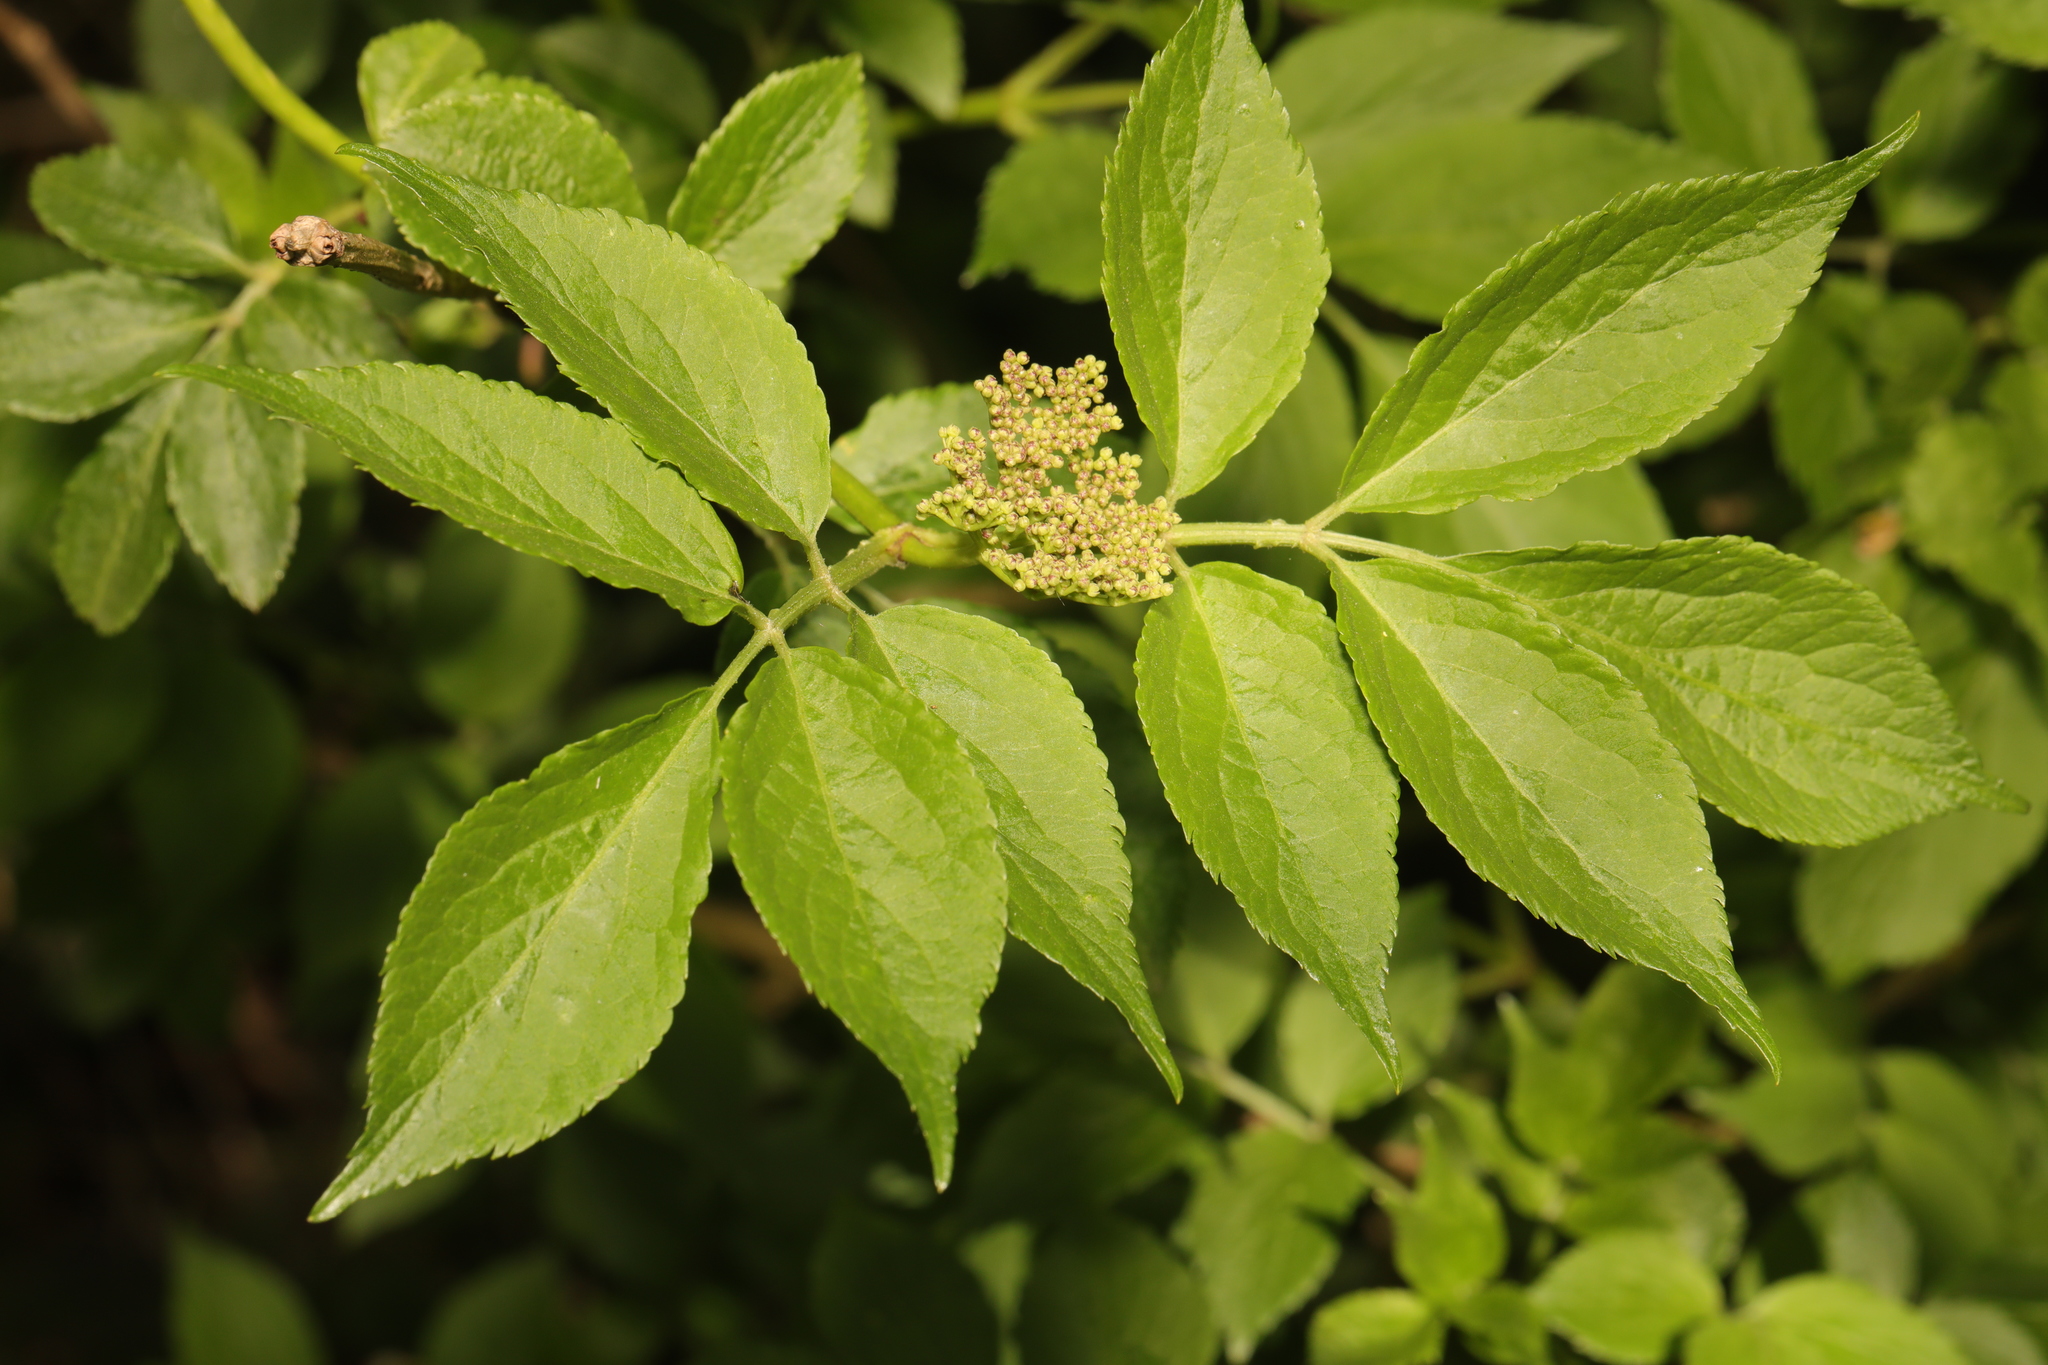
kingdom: Plantae
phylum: Tracheophyta
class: Magnoliopsida
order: Dipsacales
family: Viburnaceae
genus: Sambucus
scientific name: Sambucus nigra
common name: Elder
